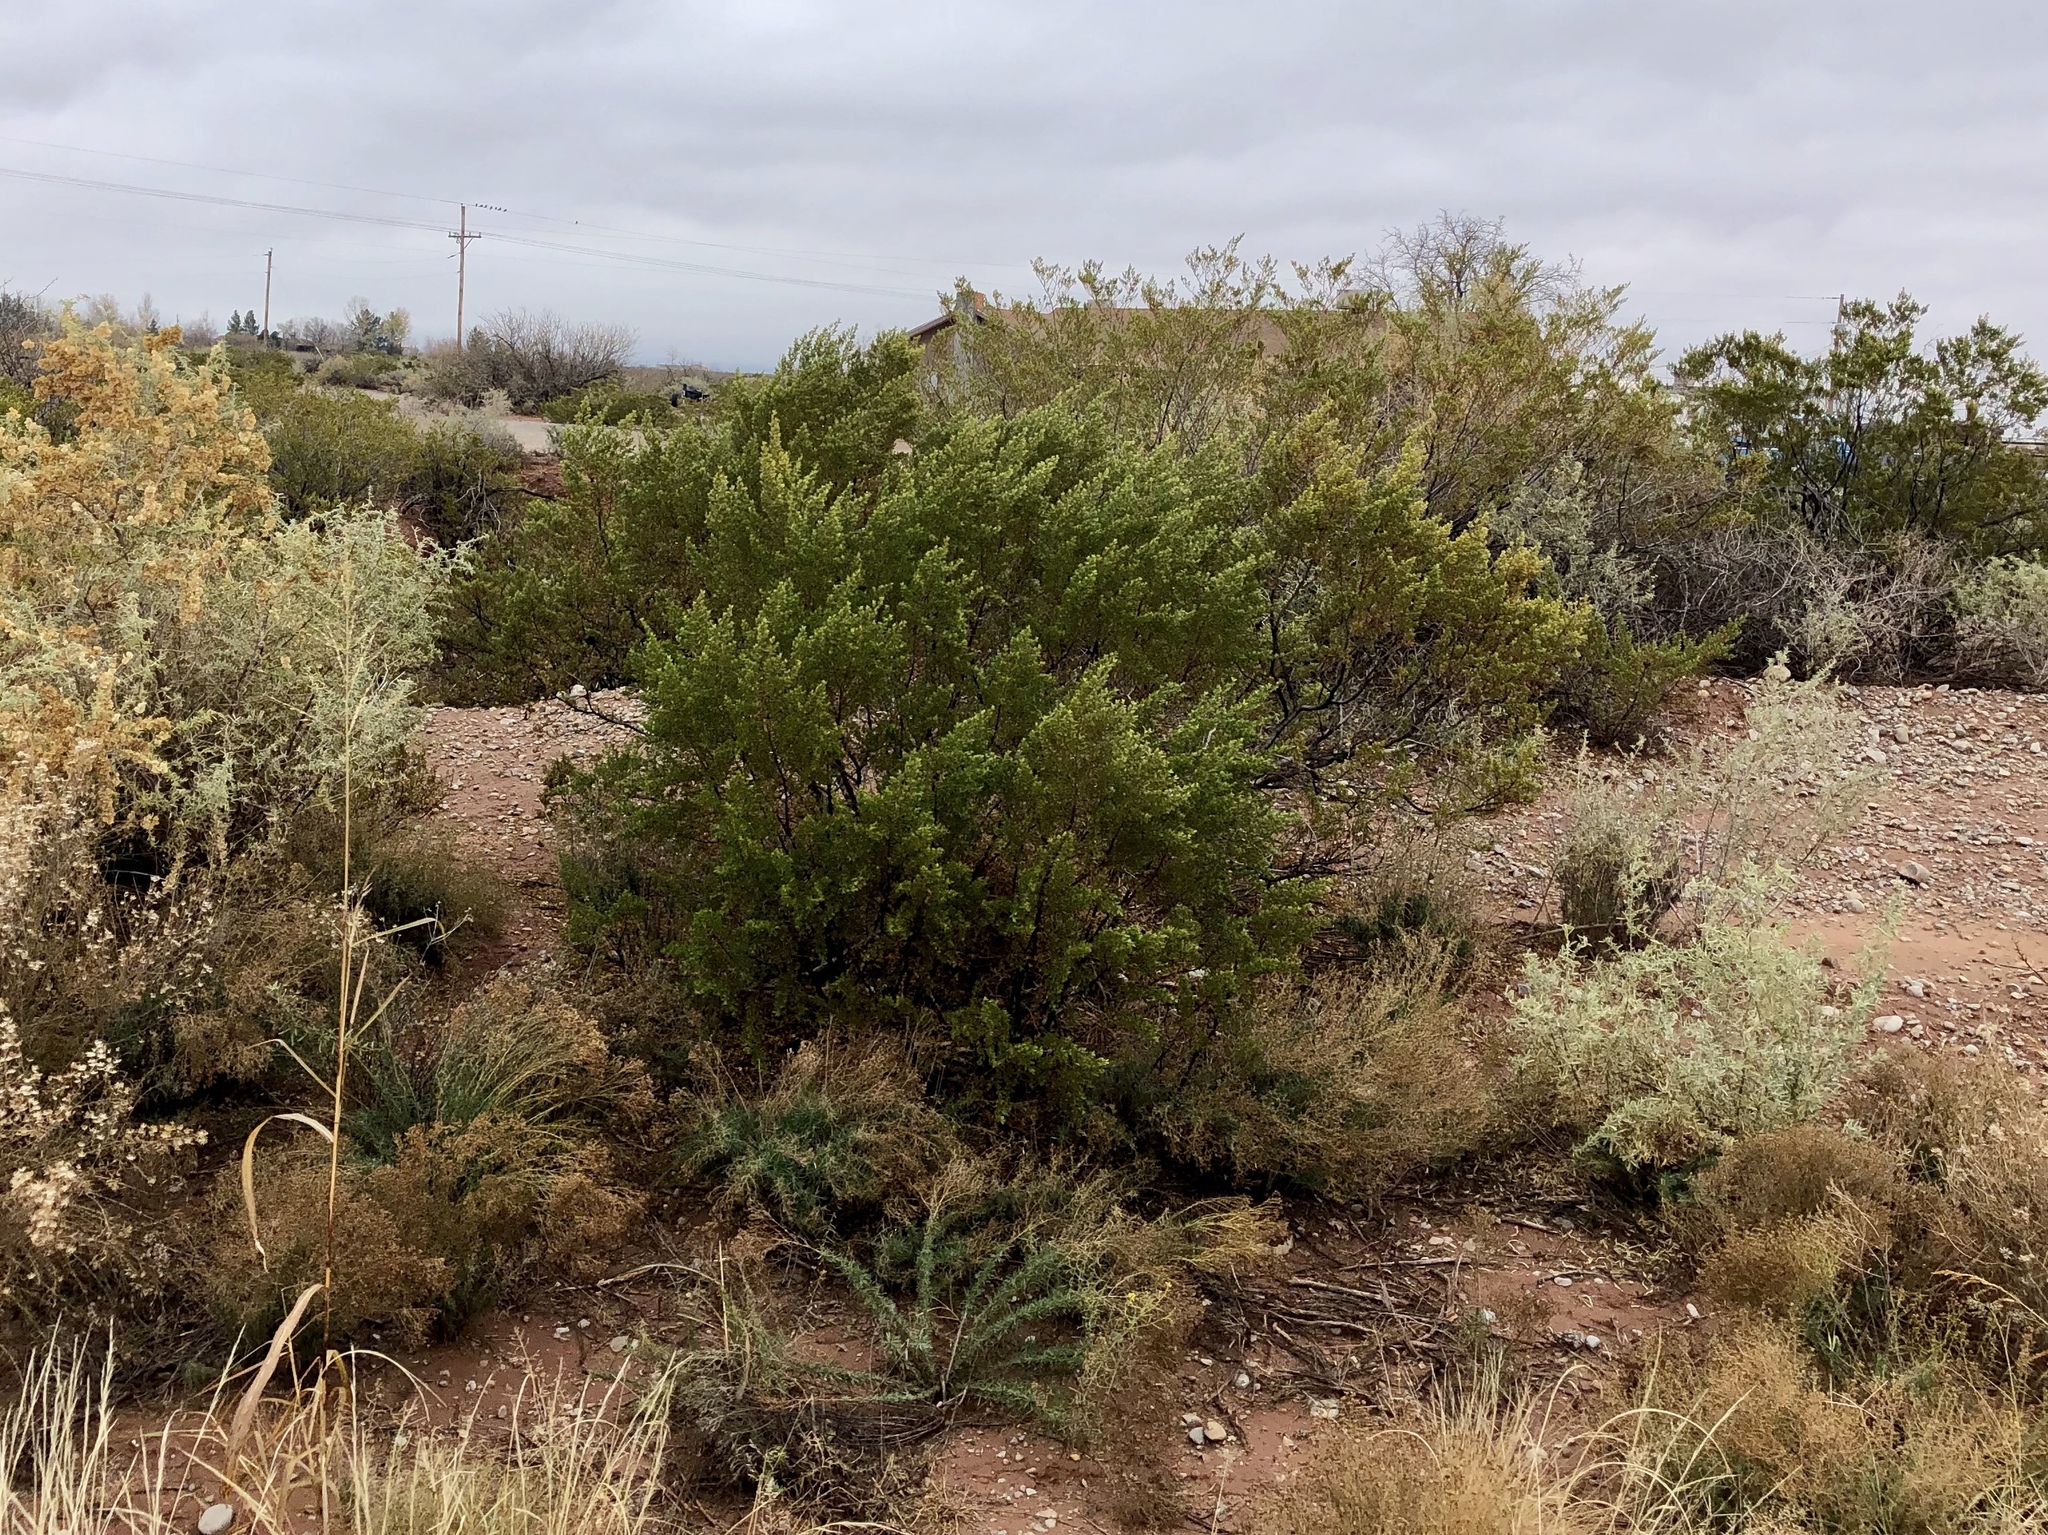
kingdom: Plantae
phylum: Tracheophyta
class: Magnoliopsida
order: Zygophyllales
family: Zygophyllaceae
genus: Larrea
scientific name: Larrea tridentata
